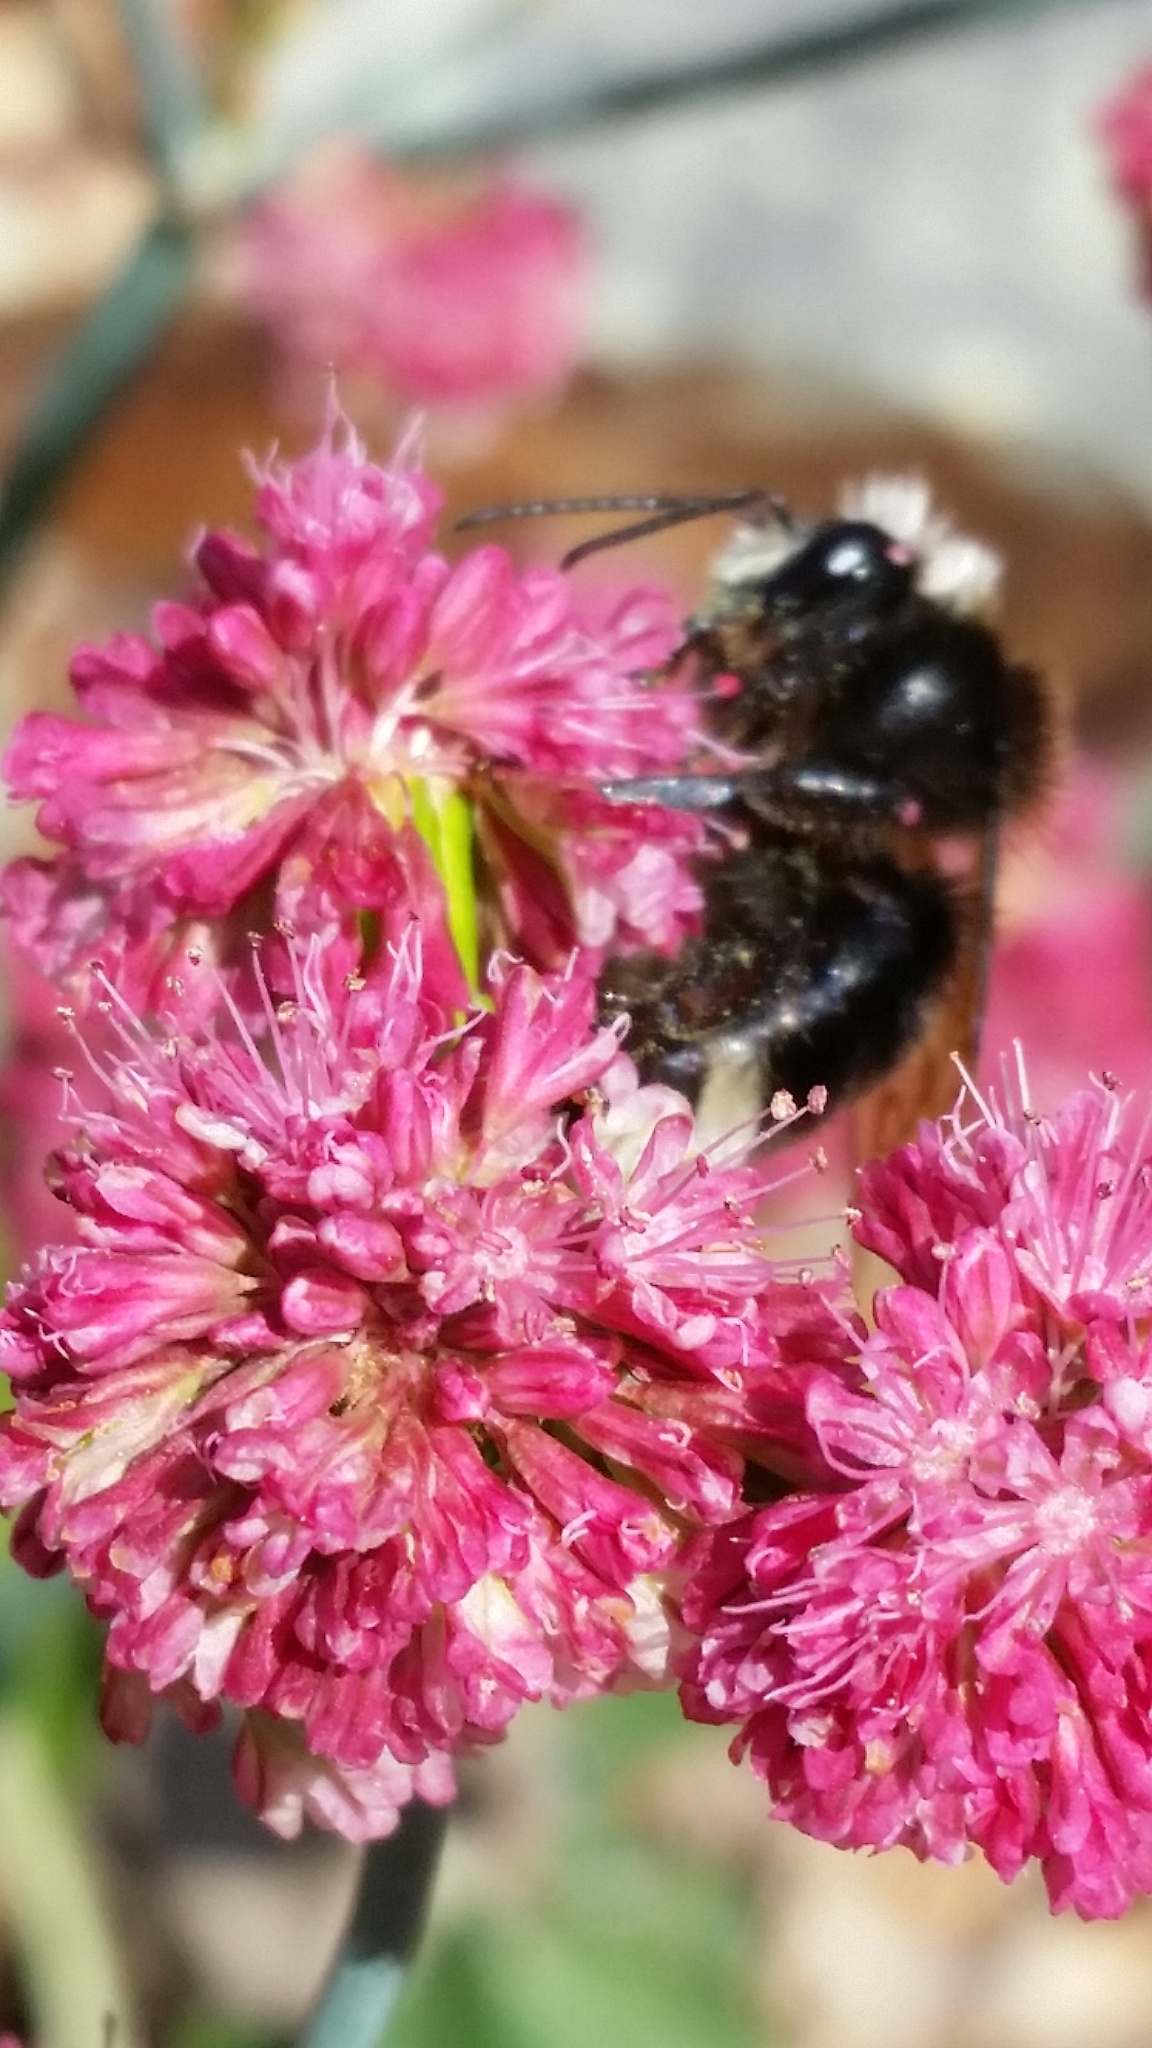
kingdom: Animalia
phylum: Arthropoda
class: Insecta
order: Hymenoptera
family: Apidae
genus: Bombus
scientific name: Bombus vosnesenskii
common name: Vosnesensky bumble bee
